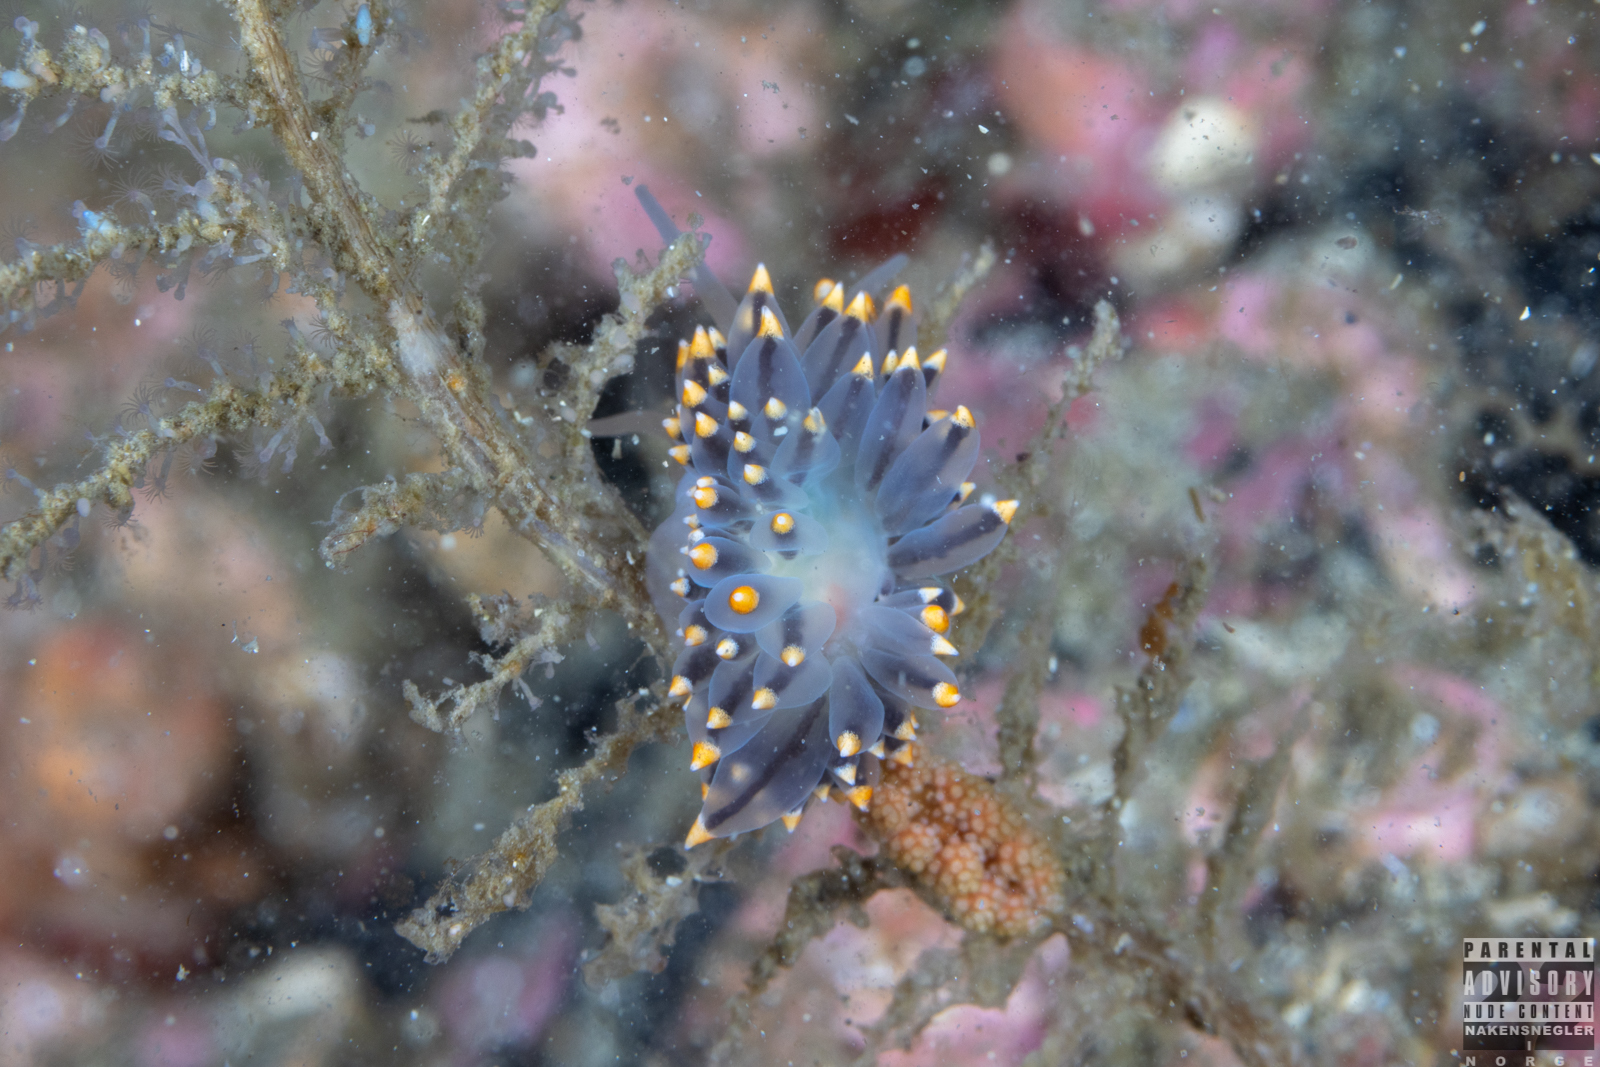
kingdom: Animalia
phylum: Mollusca
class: Gastropoda
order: Nudibranchia
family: Eubranchidae
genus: Eubranchus
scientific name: Eubranchus tricolor
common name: Painted balloon aeolis
